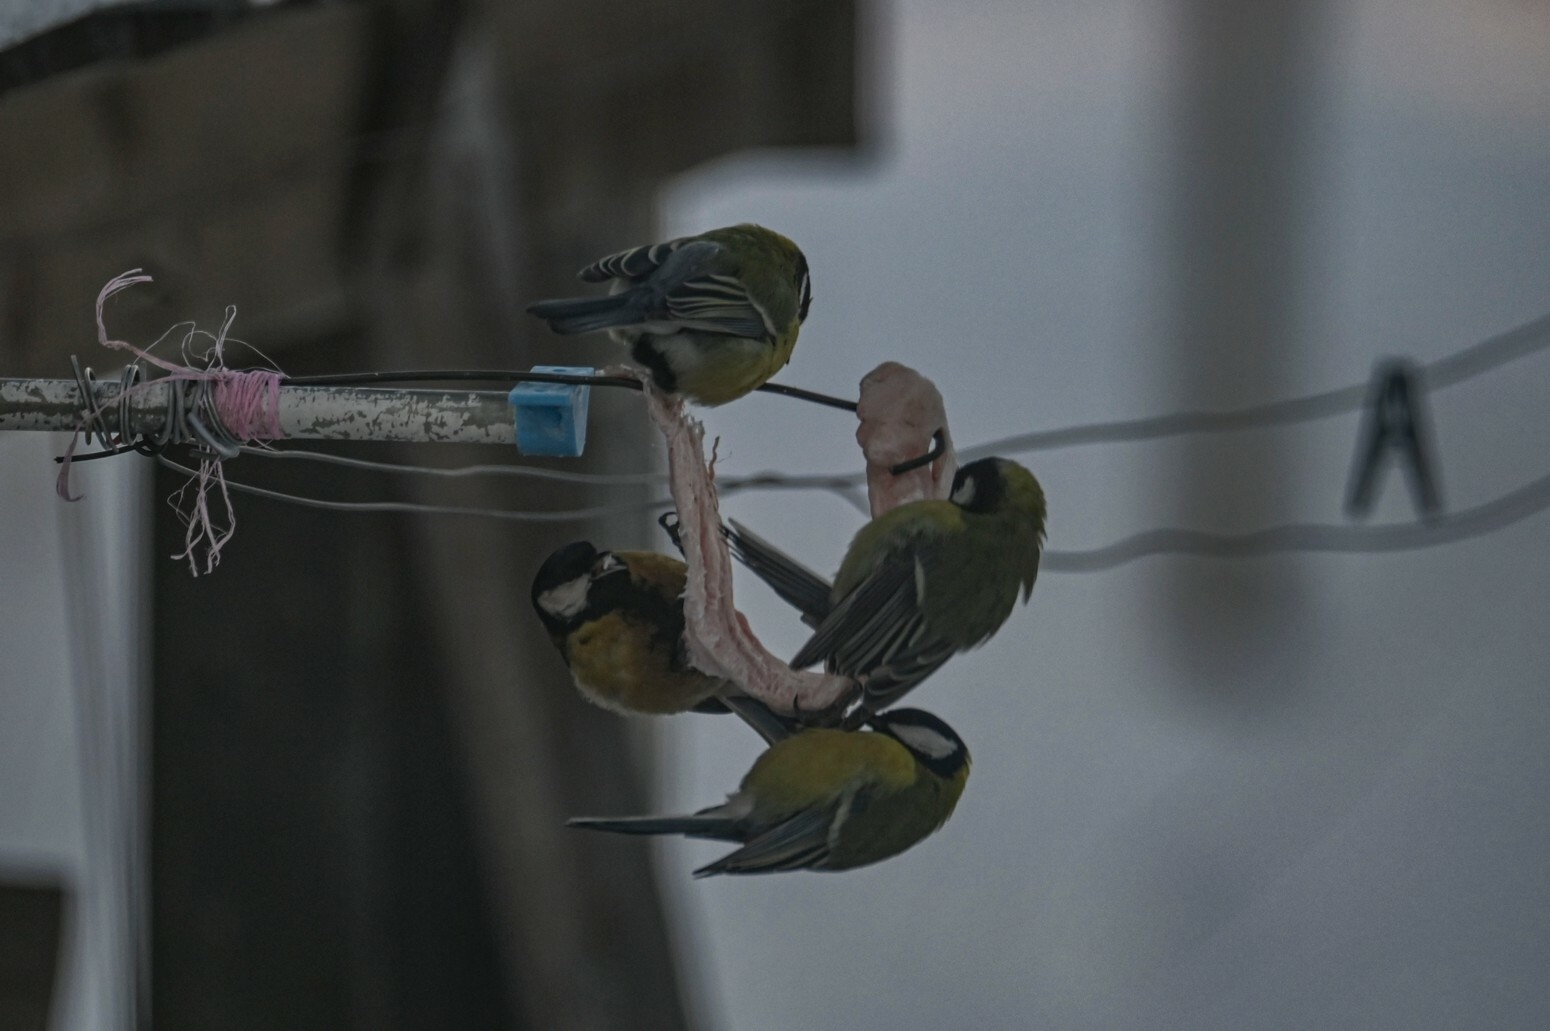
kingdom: Animalia
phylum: Chordata
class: Aves
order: Passeriformes
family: Paridae
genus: Parus
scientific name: Parus major
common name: Great tit
